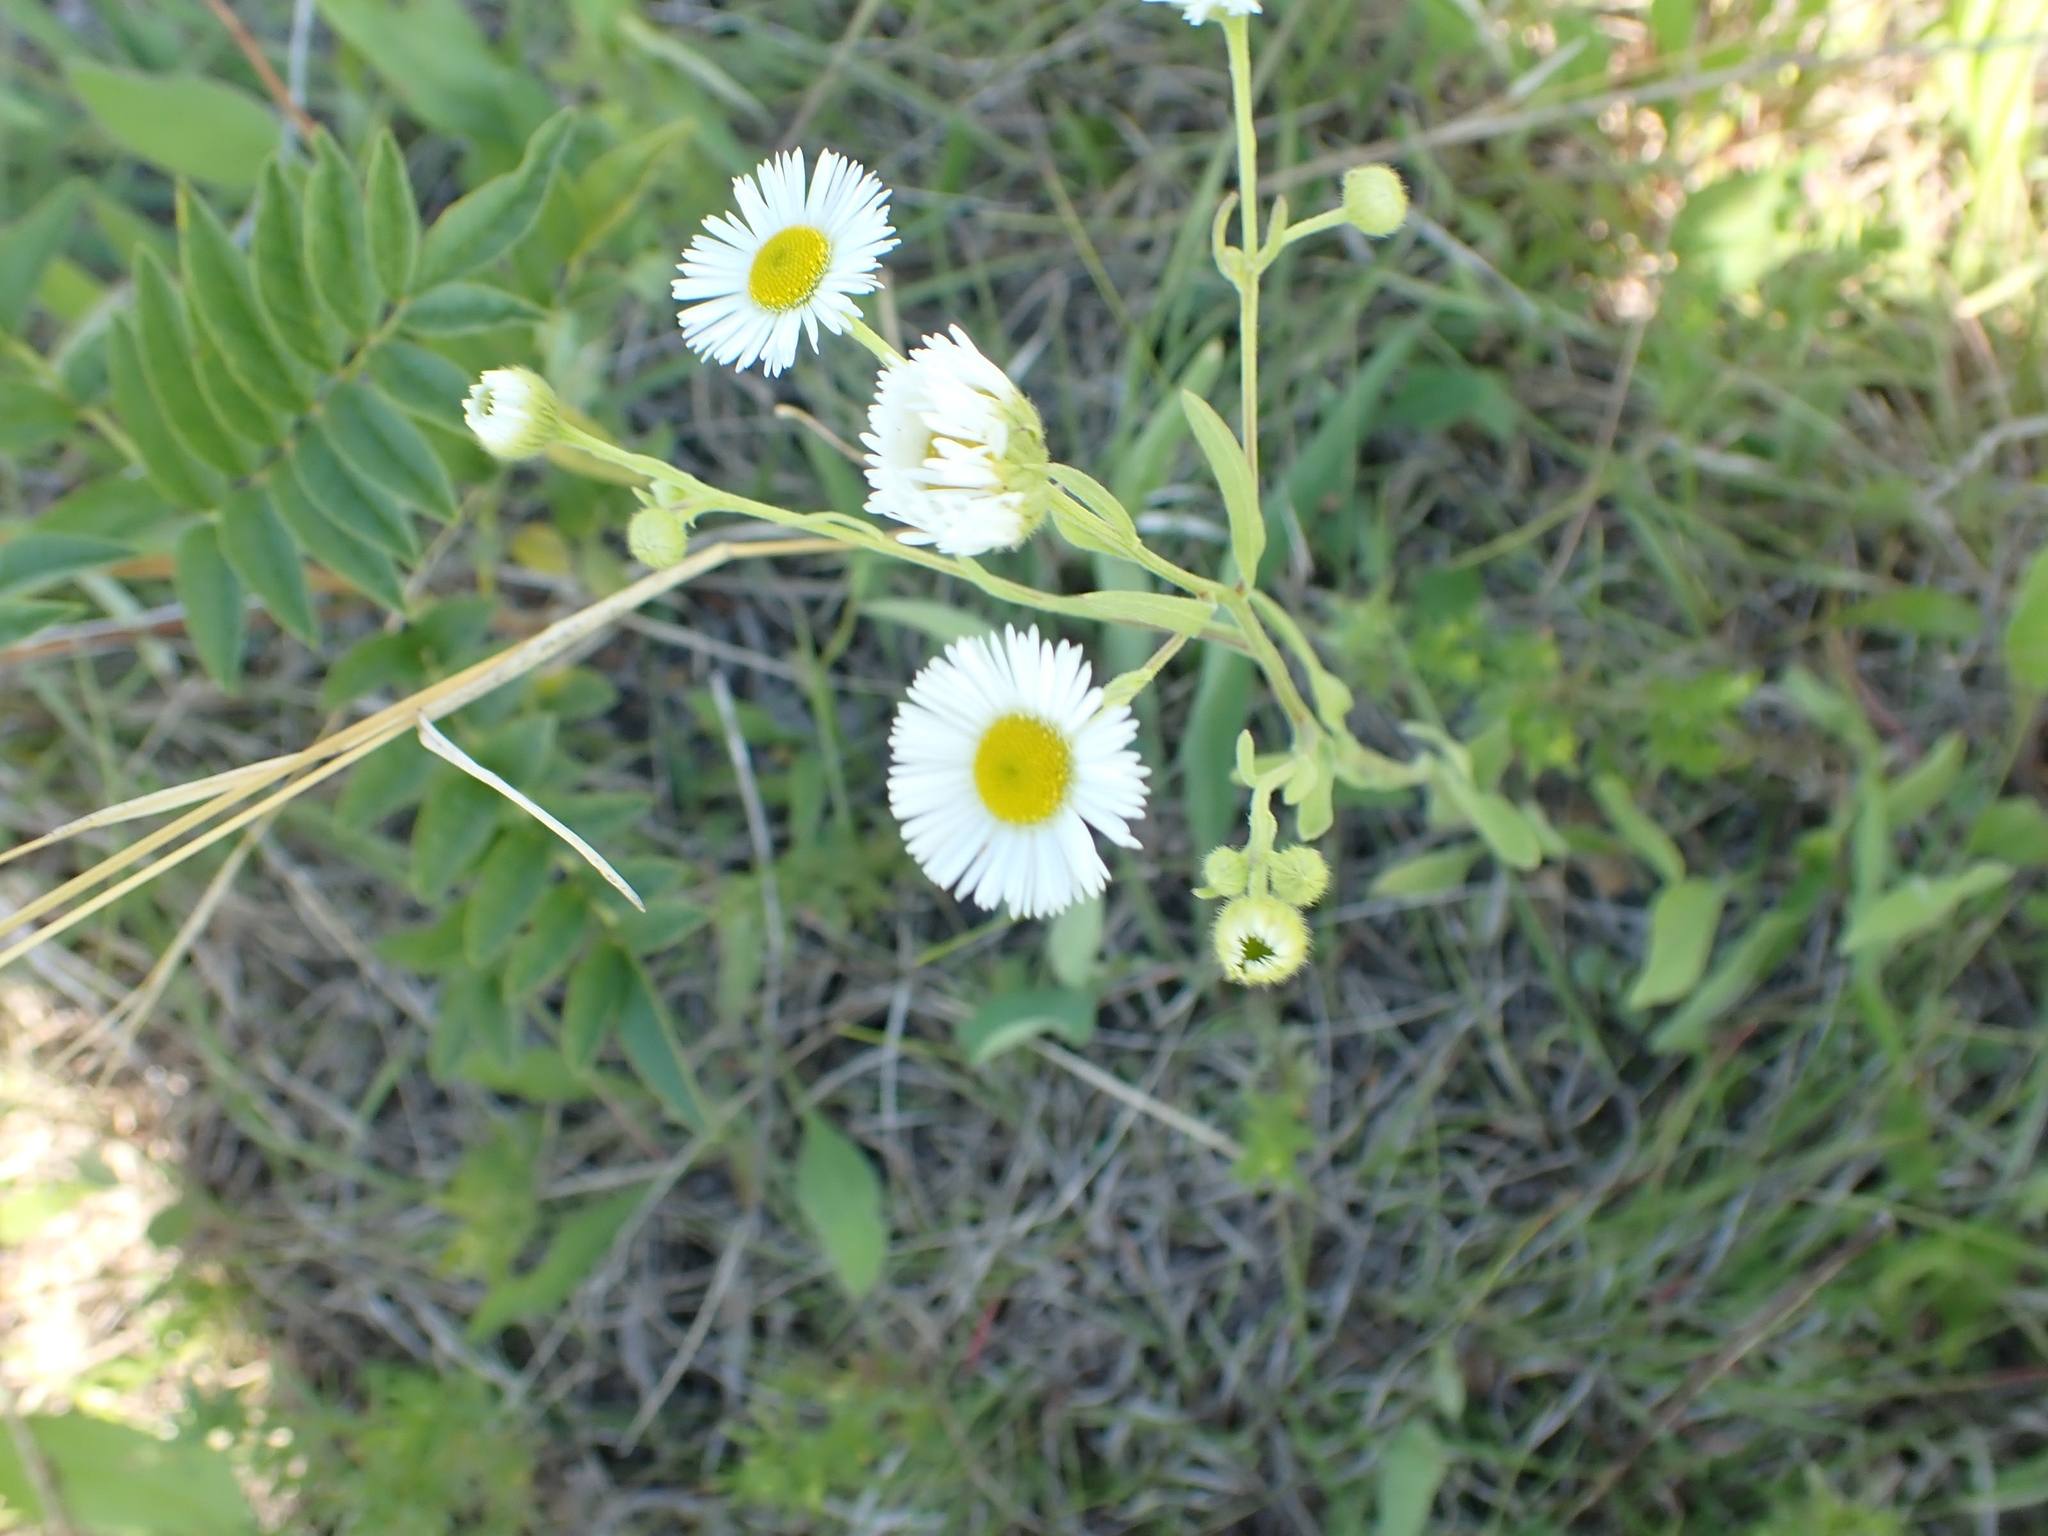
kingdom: Plantae
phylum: Tracheophyta
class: Magnoliopsida
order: Asterales
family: Asteraceae
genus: Erigeron
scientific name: Erigeron strigosus
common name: Common eastern fleabane
